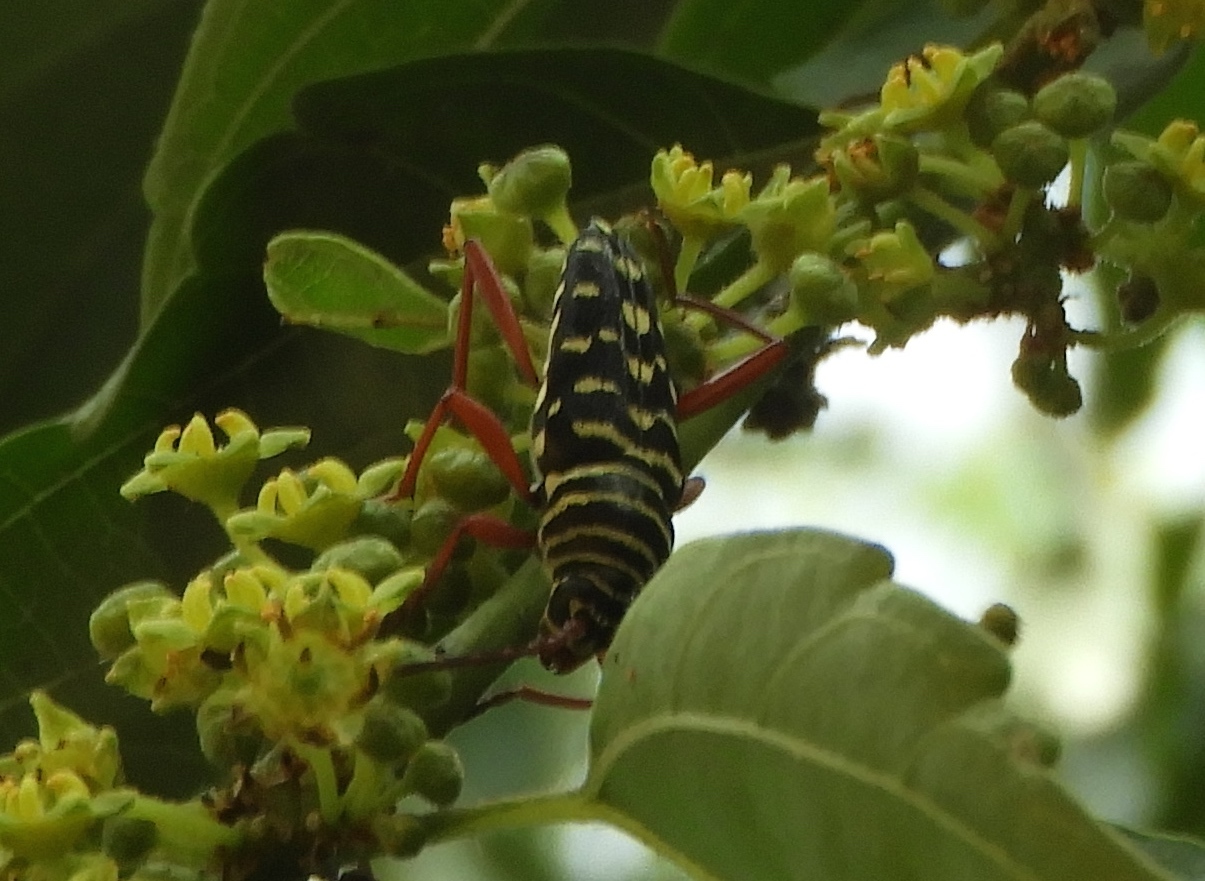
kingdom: Animalia
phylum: Arthropoda
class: Insecta
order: Coleoptera
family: Cerambycidae
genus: Placosternus
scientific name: Placosternus erythropus
